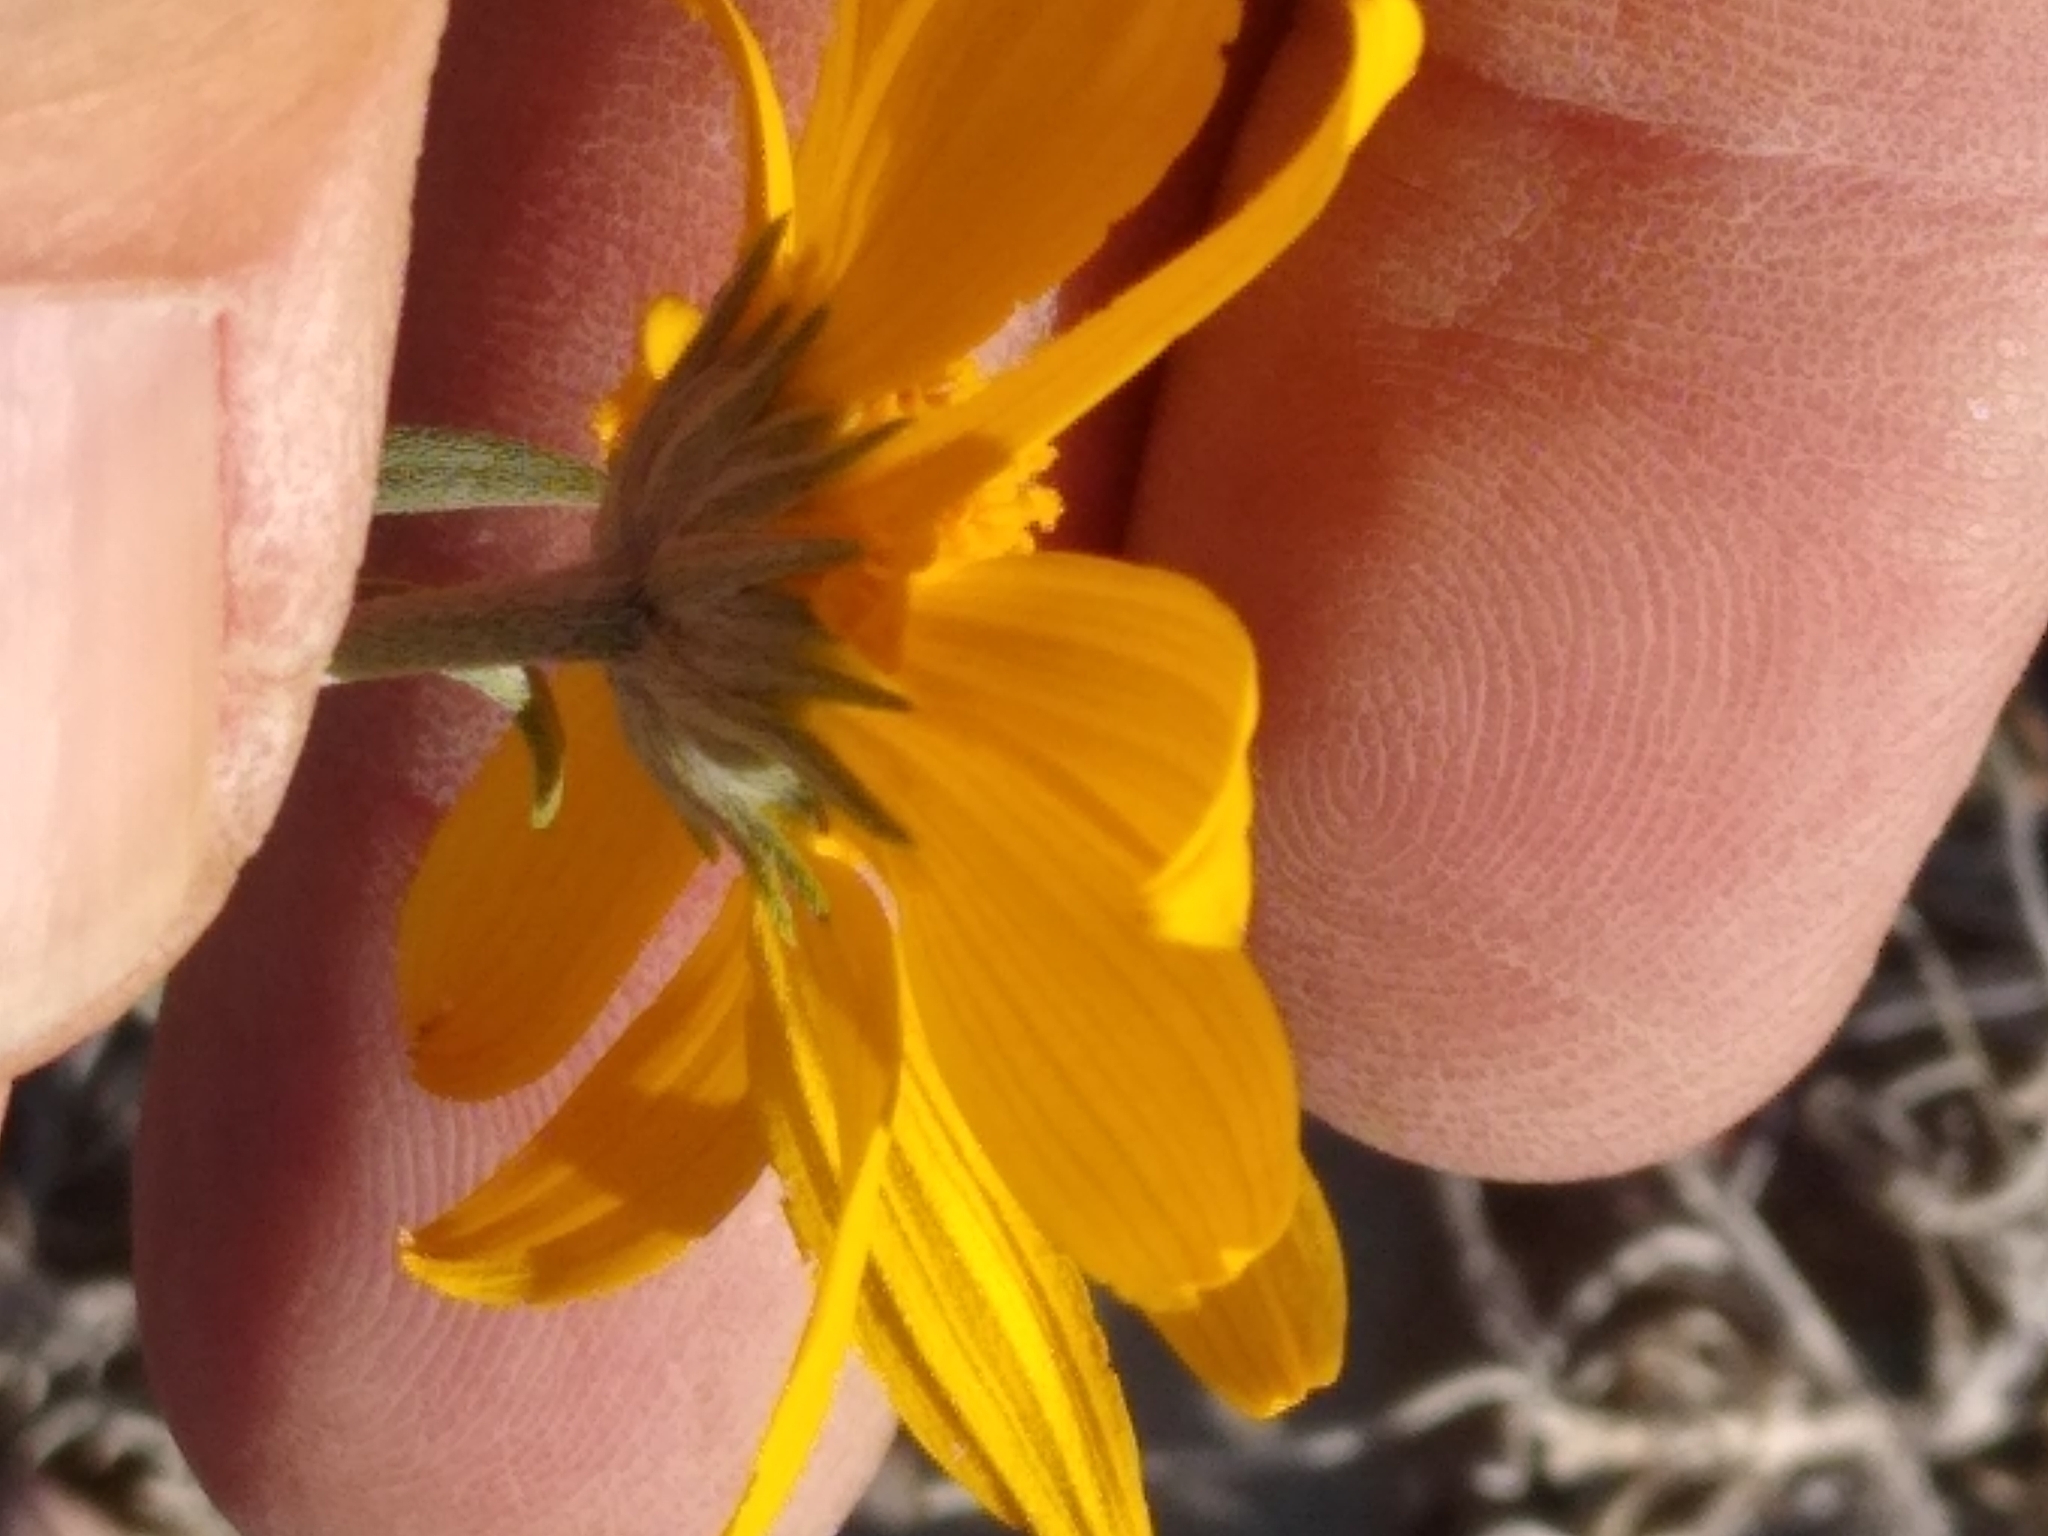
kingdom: Plantae
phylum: Tracheophyta
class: Magnoliopsida
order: Asterales
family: Asteraceae
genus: Heliomeris
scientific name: Heliomeris multiflora
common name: Showy goldeneye
